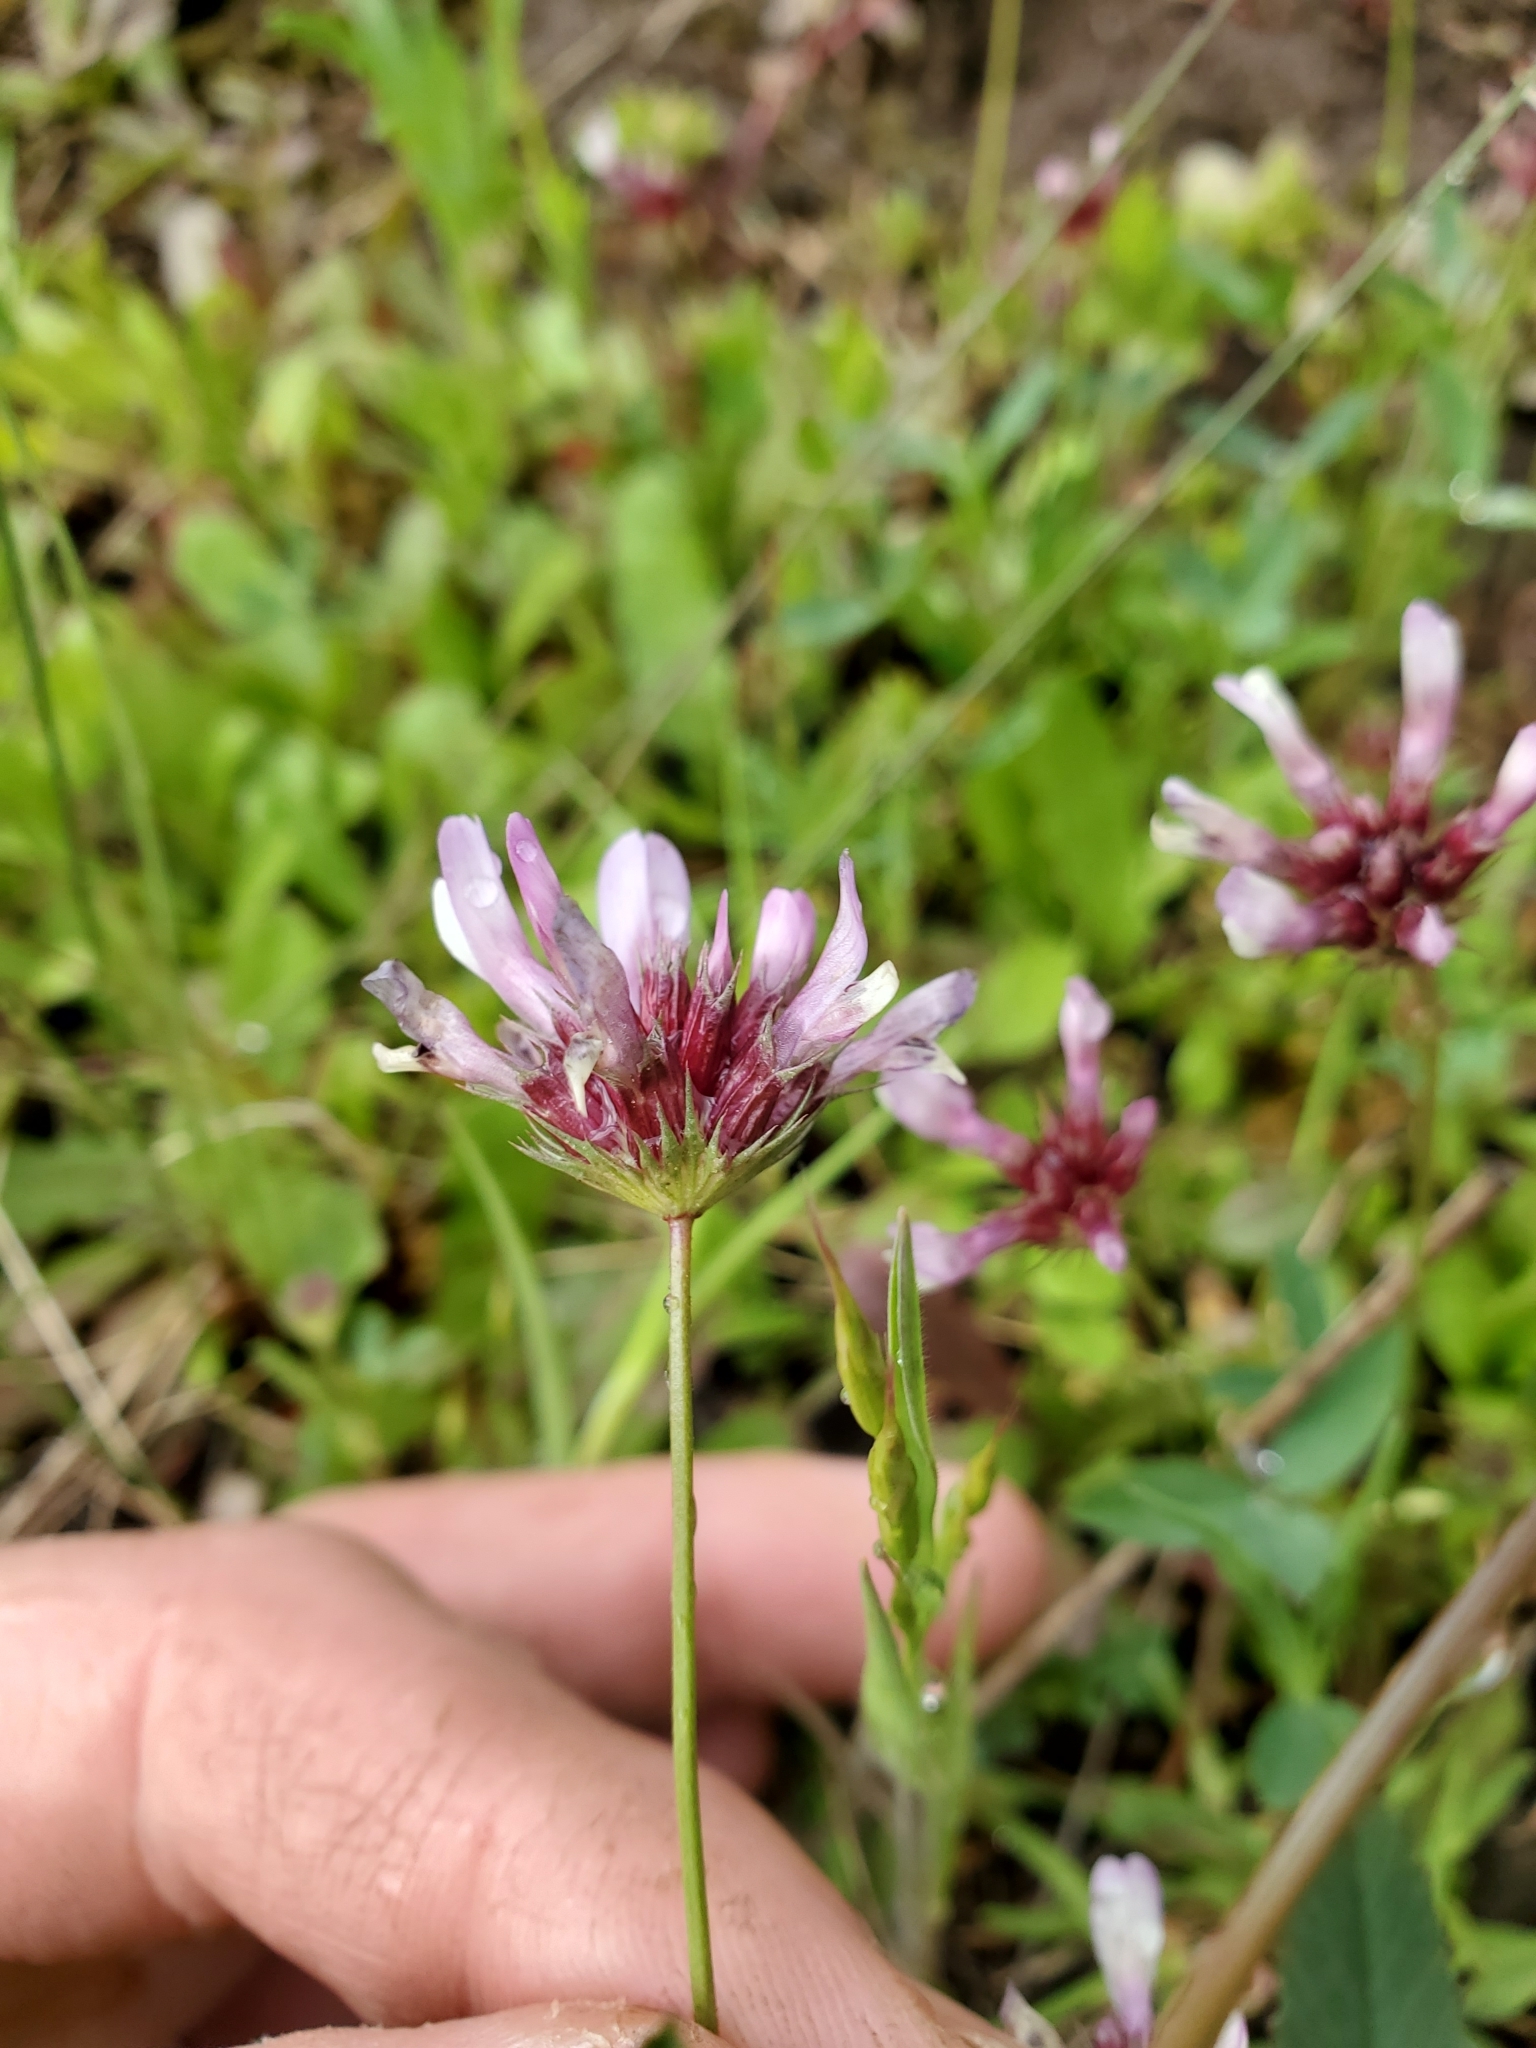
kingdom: Plantae
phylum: Tracheophyta
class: Magnoliopsida
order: Fabales
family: Fabaceae
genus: Trifolium
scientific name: Trifolium willdenovii
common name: Tomcat clover
